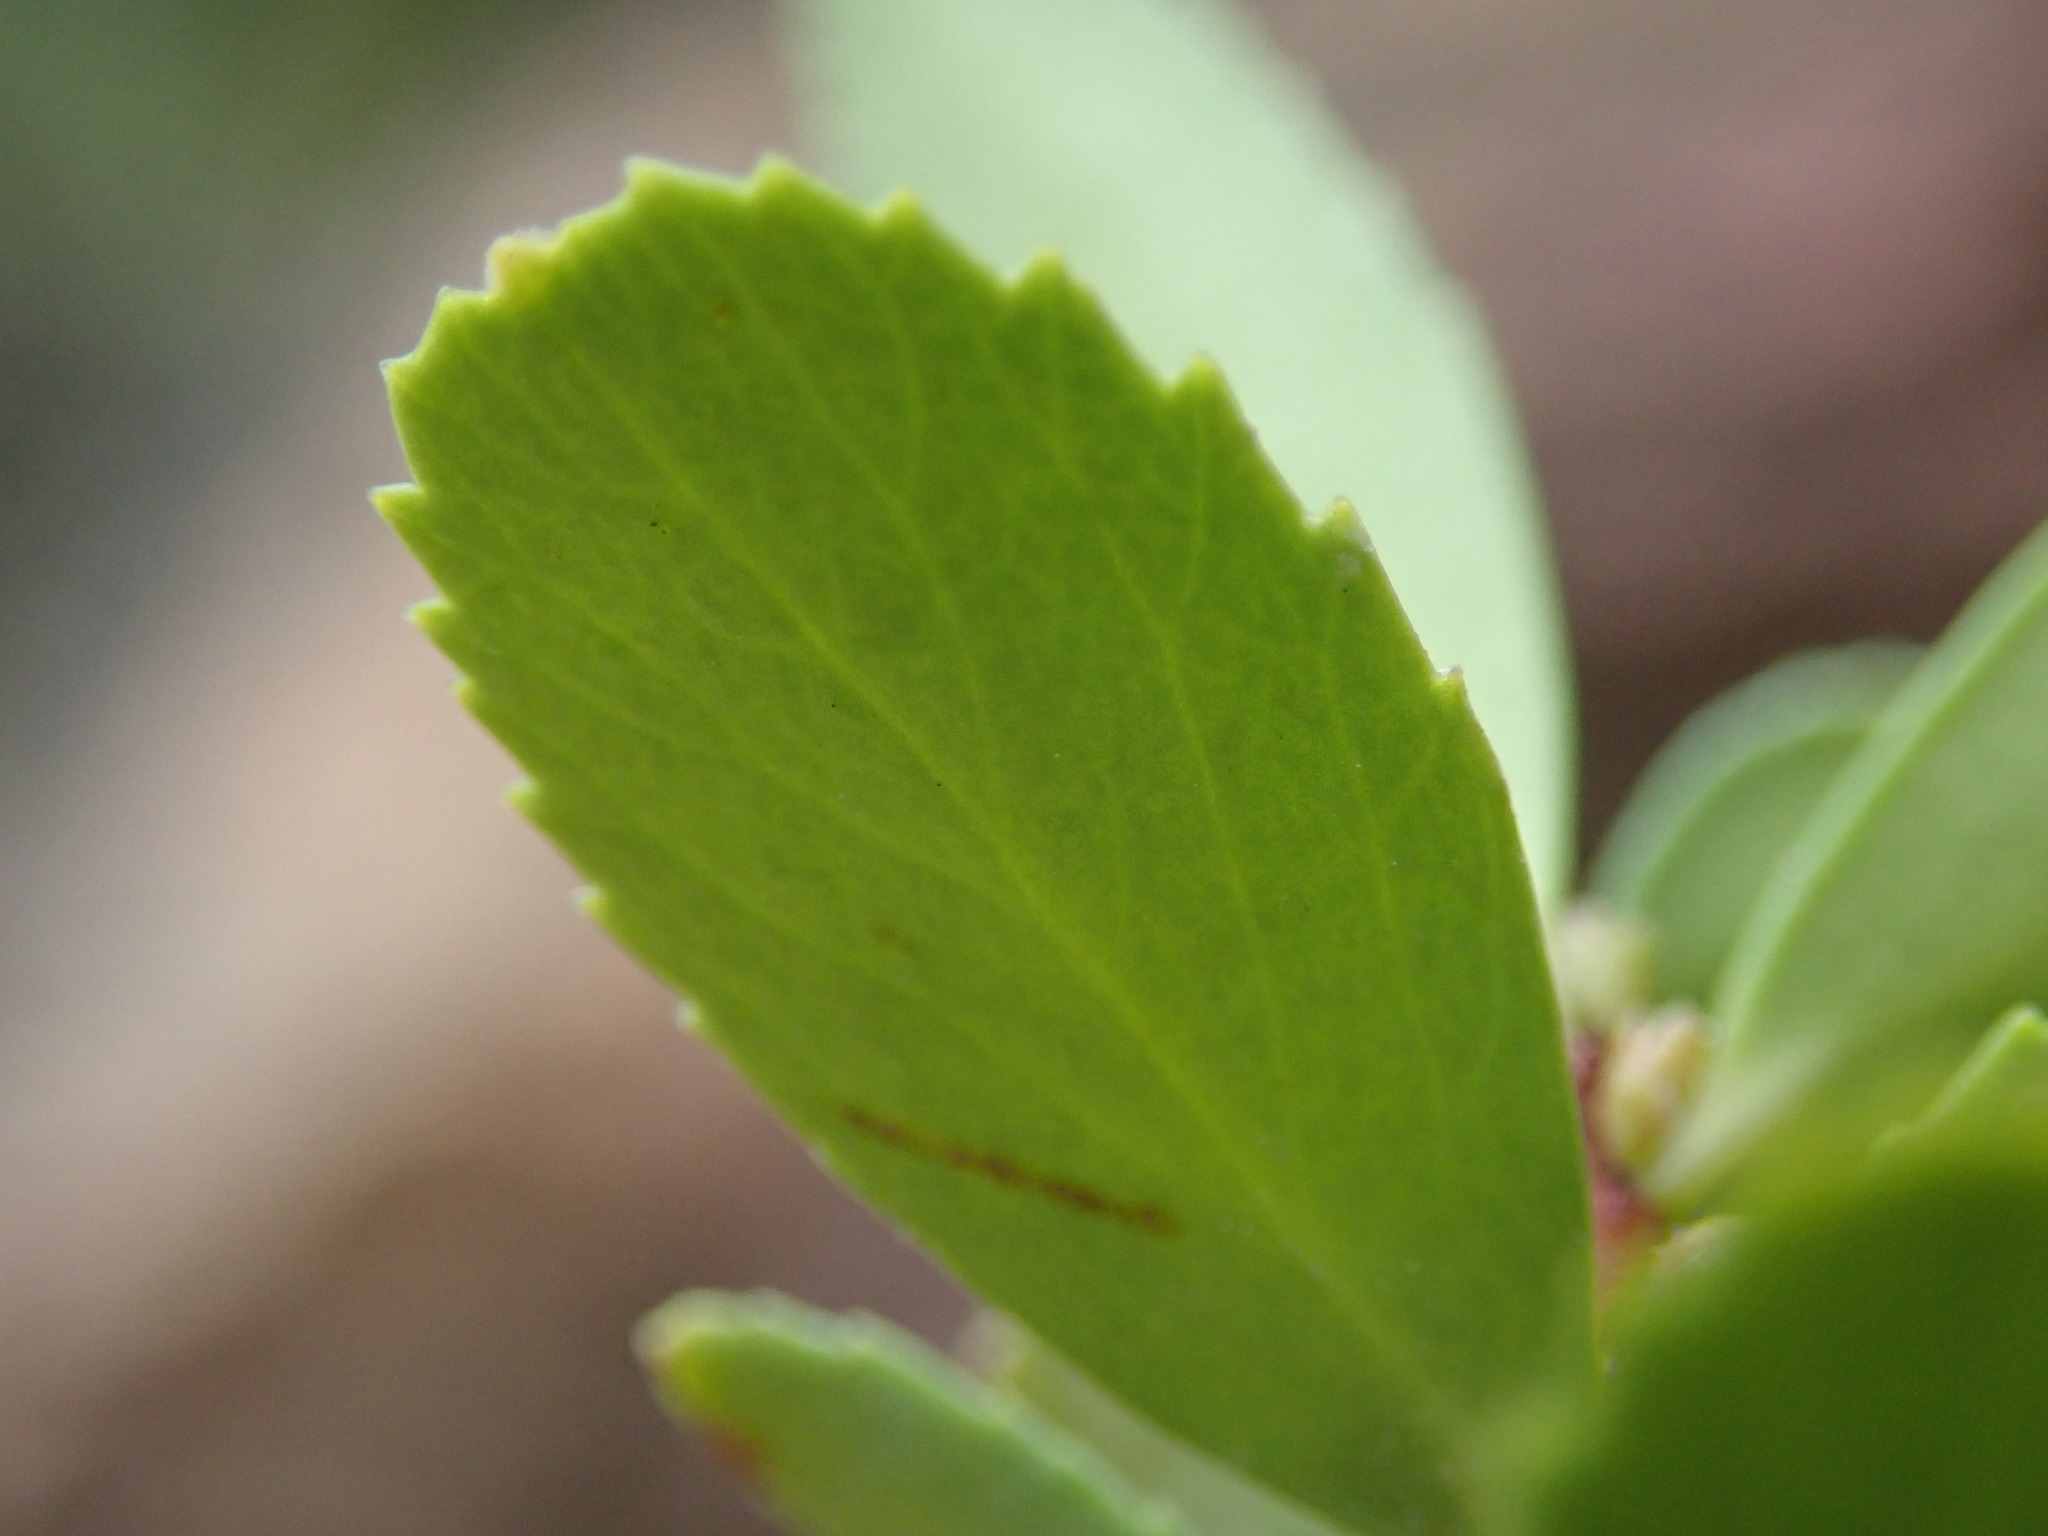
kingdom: Plantae
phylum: Tracheophyta
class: Magnoliopsida
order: Celastrales
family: Celastraceae
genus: Paxistima
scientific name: Paxistima myrsinites
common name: Mountain-lover
